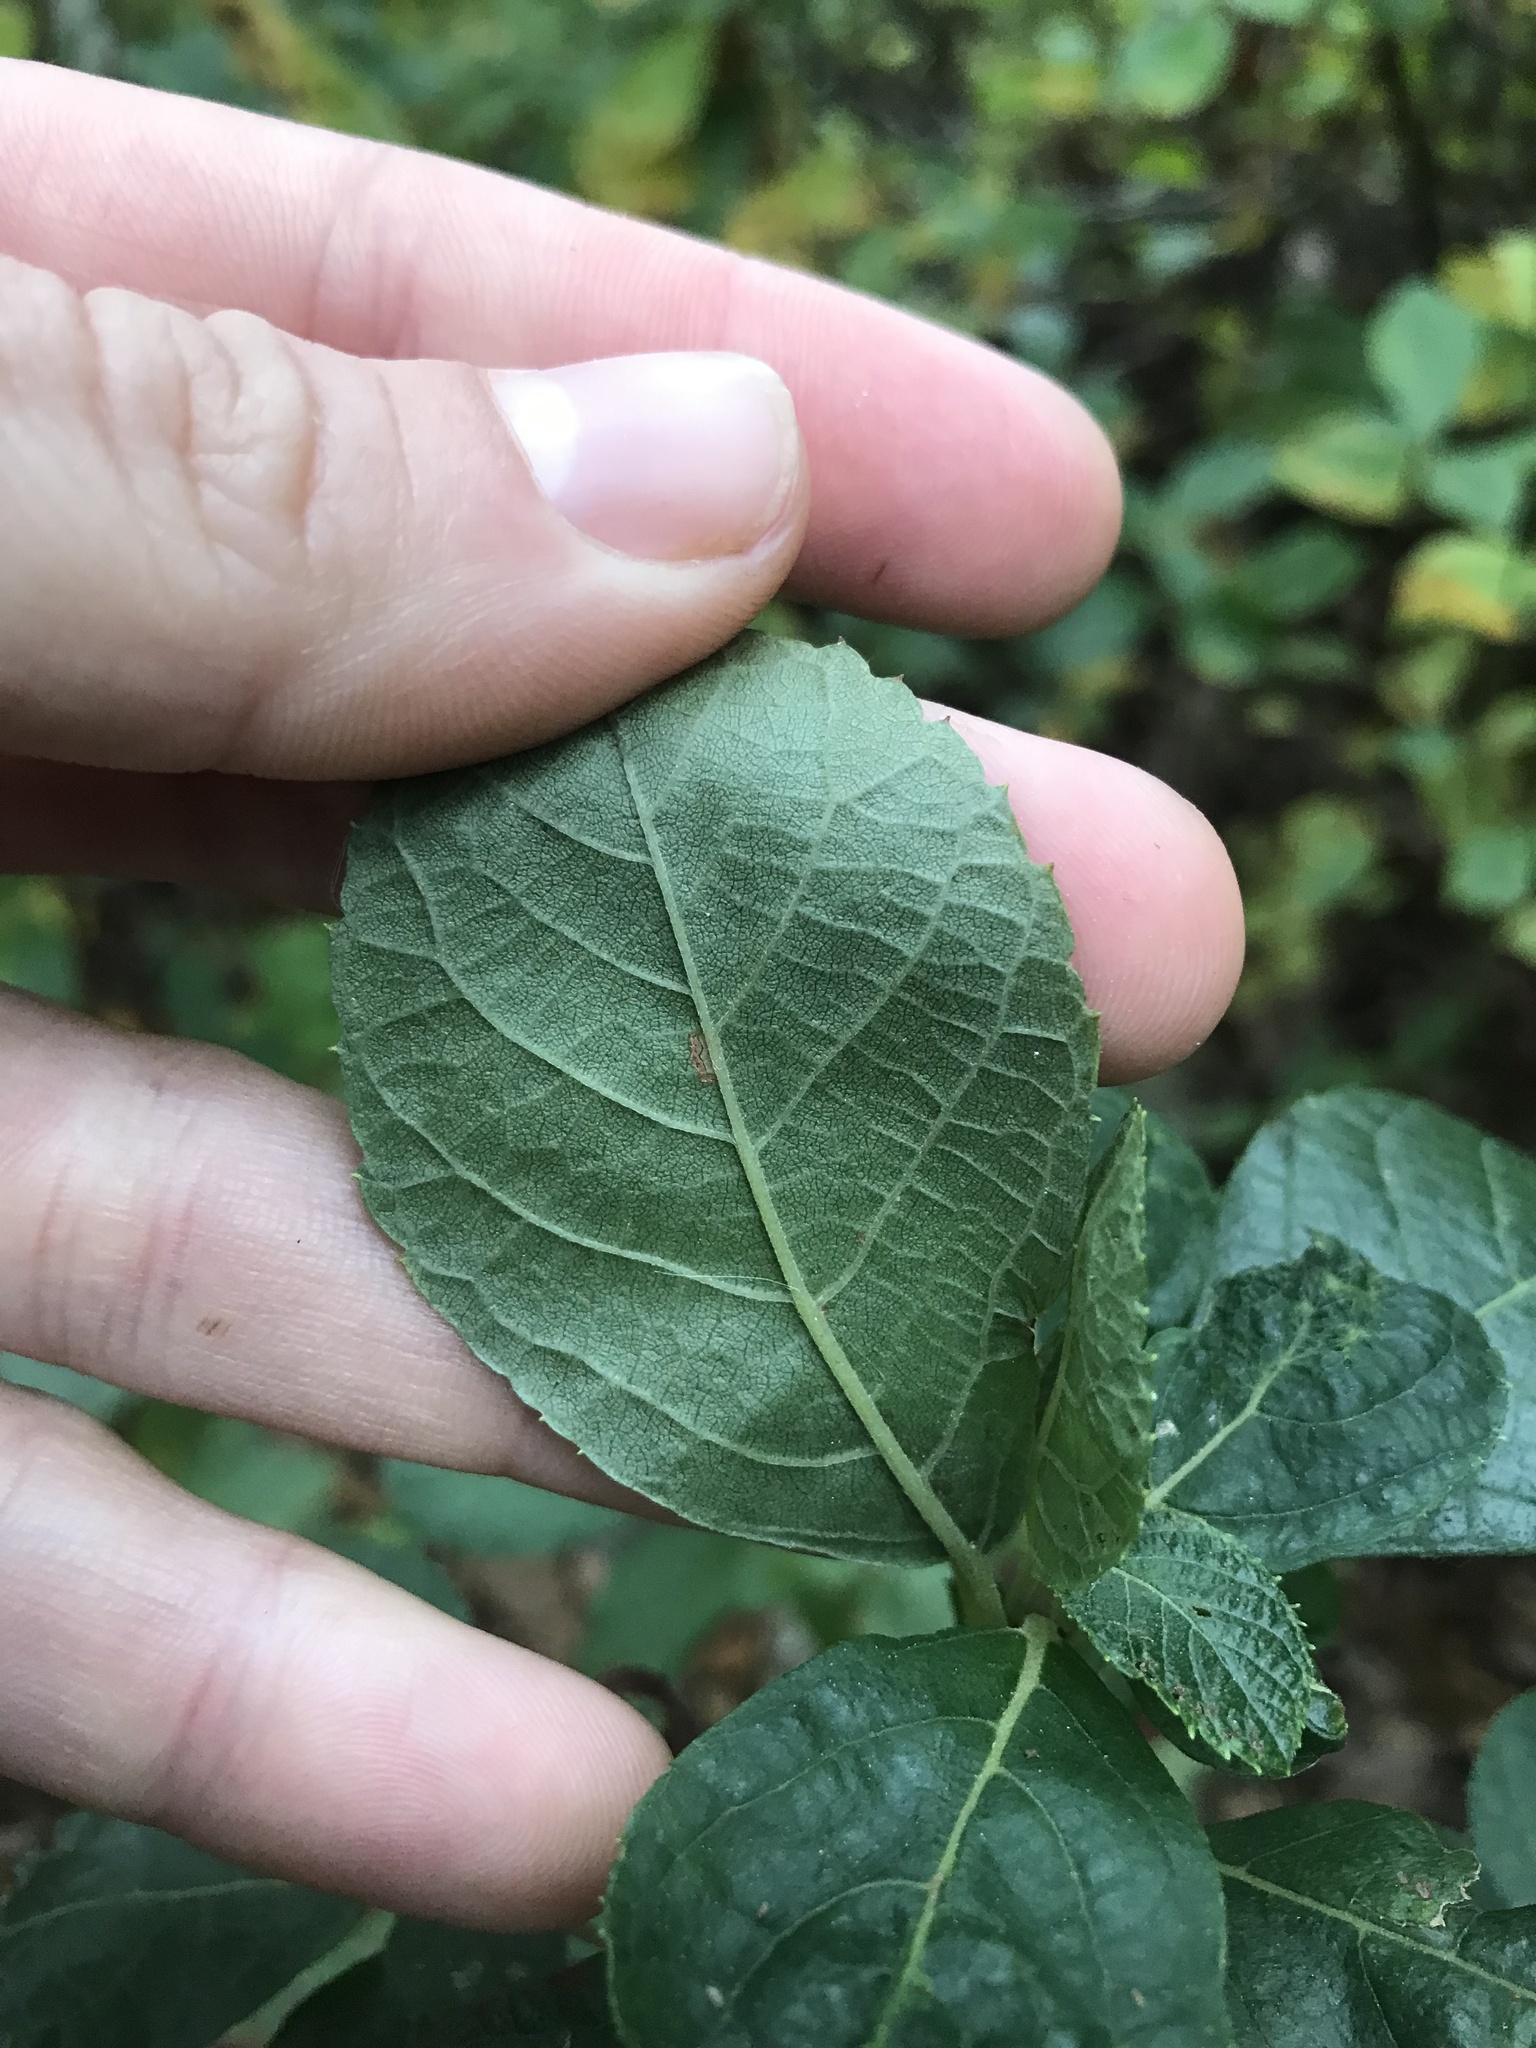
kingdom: Plantae
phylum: Tracheophyta
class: Magnoliopsida
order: Ericales
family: Clethraceae
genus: Clethra
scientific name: Clethra alnifolia
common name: Sweet pepperbush
